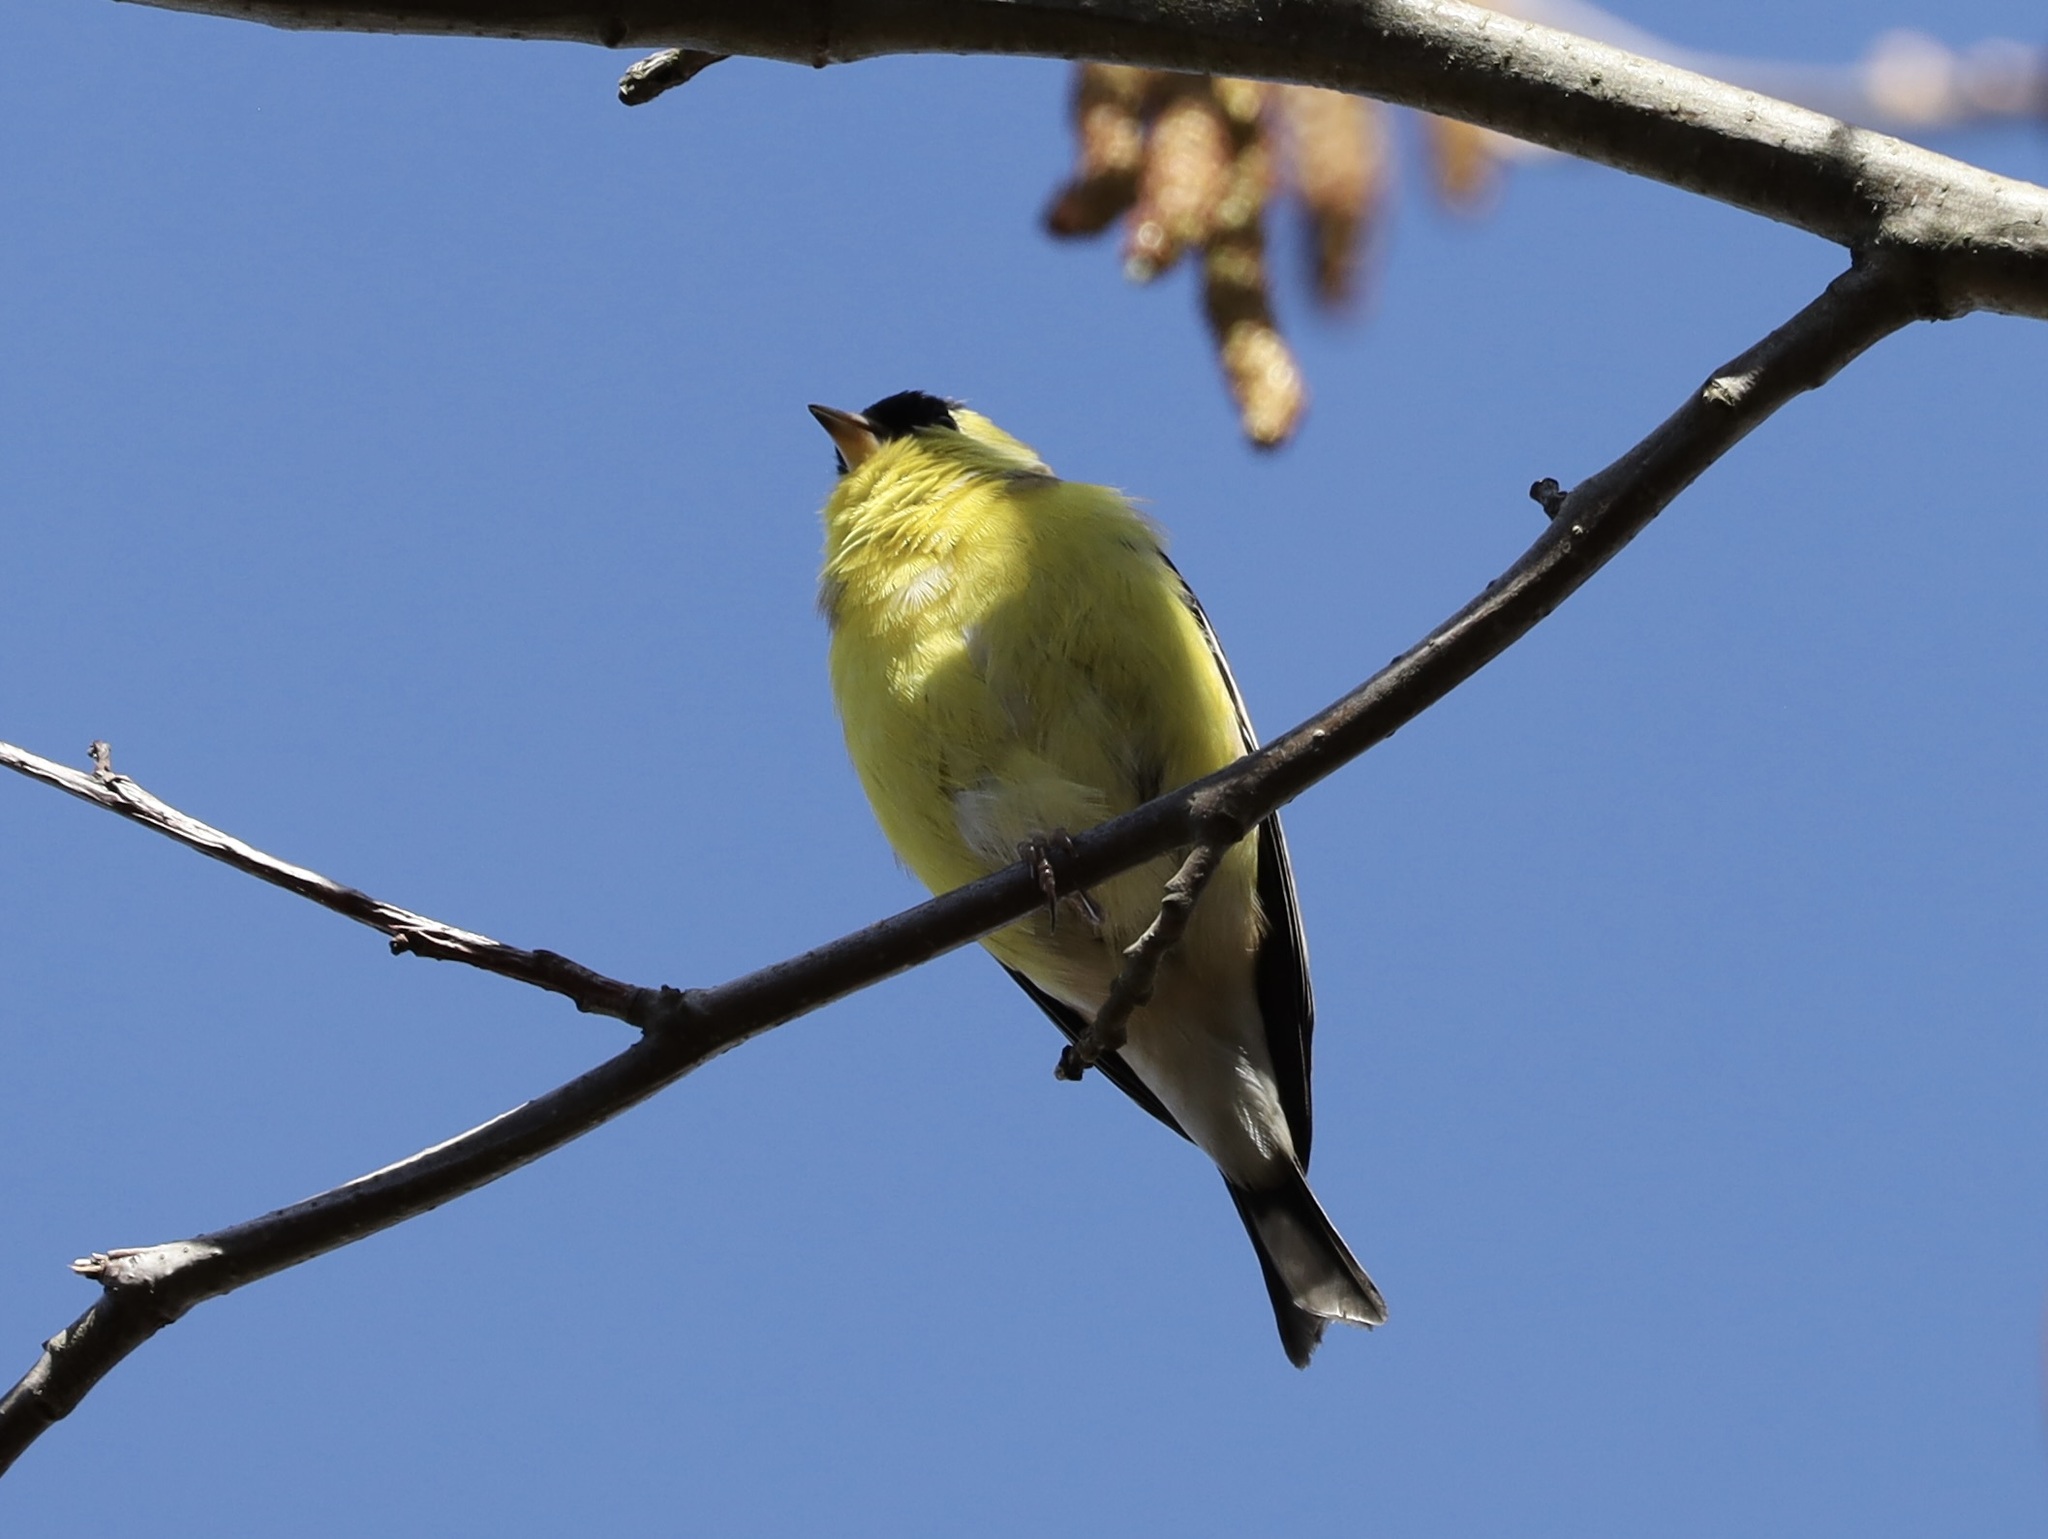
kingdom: Animalia
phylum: Chordata
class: Aves
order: Passeriformes
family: Fringillidae
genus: Spinus
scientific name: Spinus tristis
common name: American goldfinch
